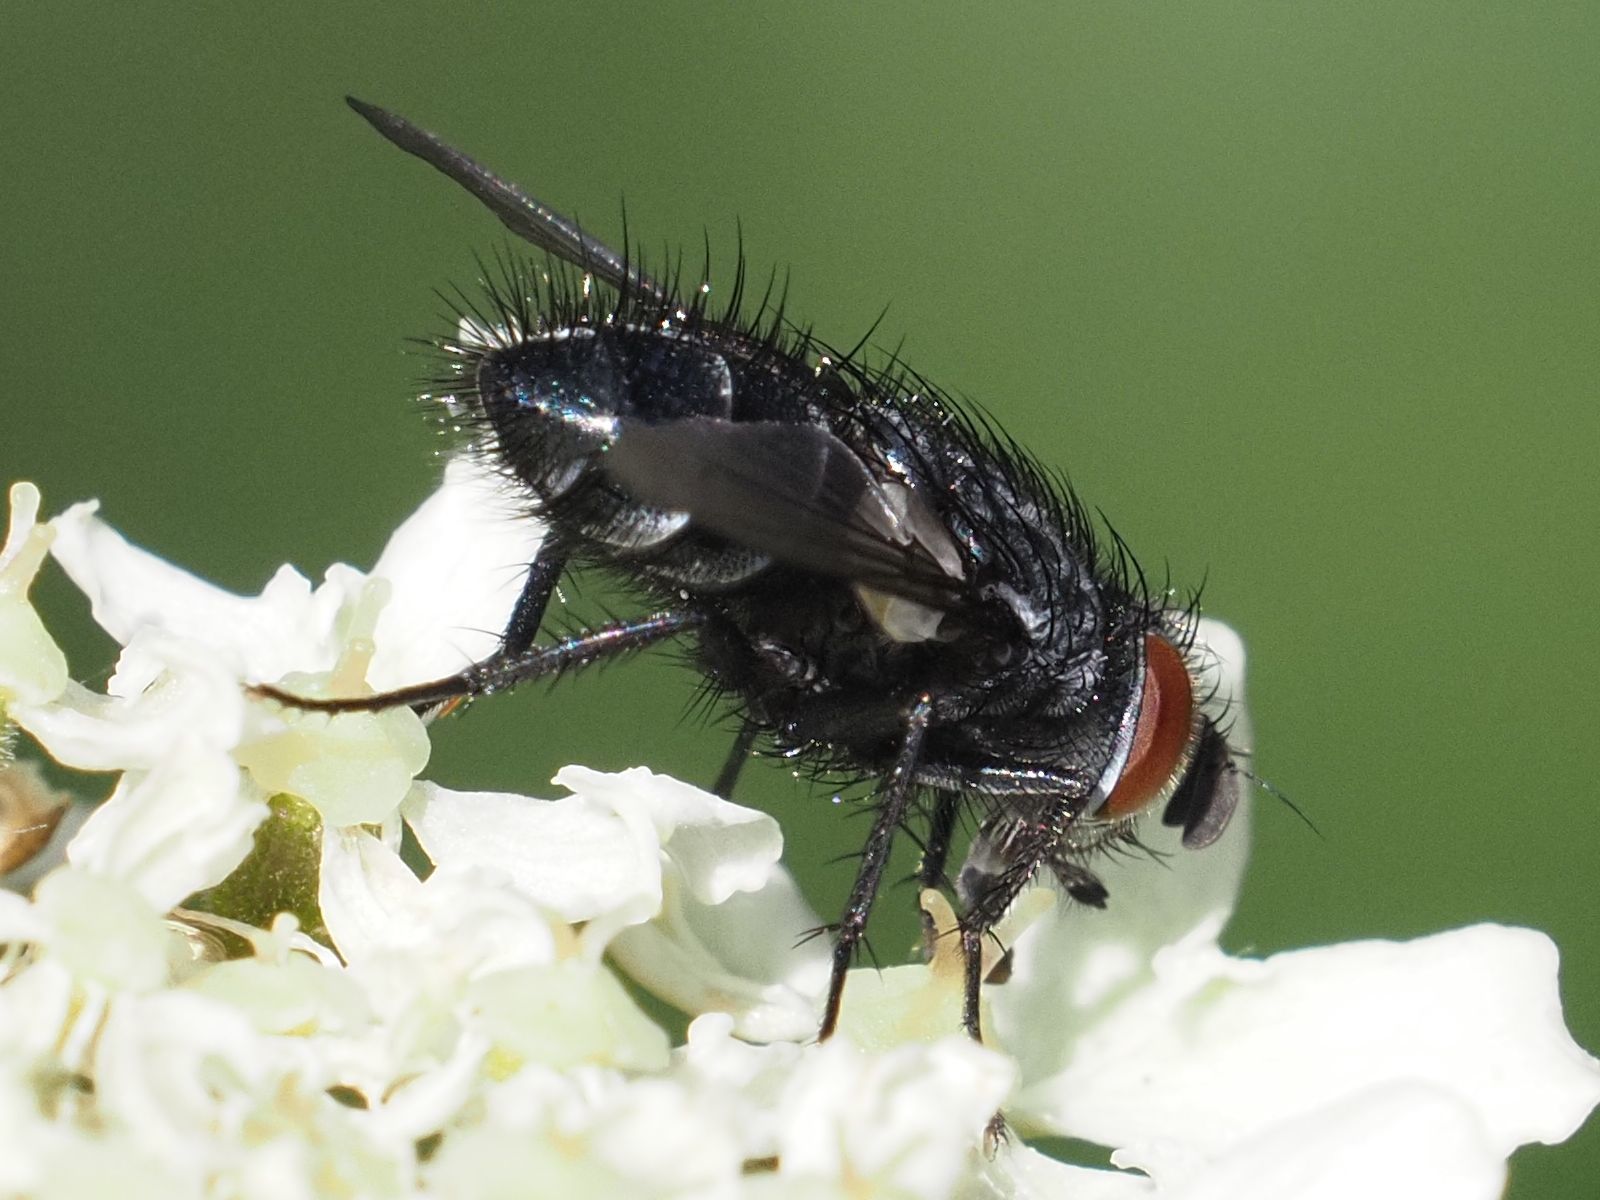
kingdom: Animalia
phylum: Arthropoda
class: Insecta
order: Diptera
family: Tachinidae
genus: Epicampocera
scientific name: Epicampocera succincta
